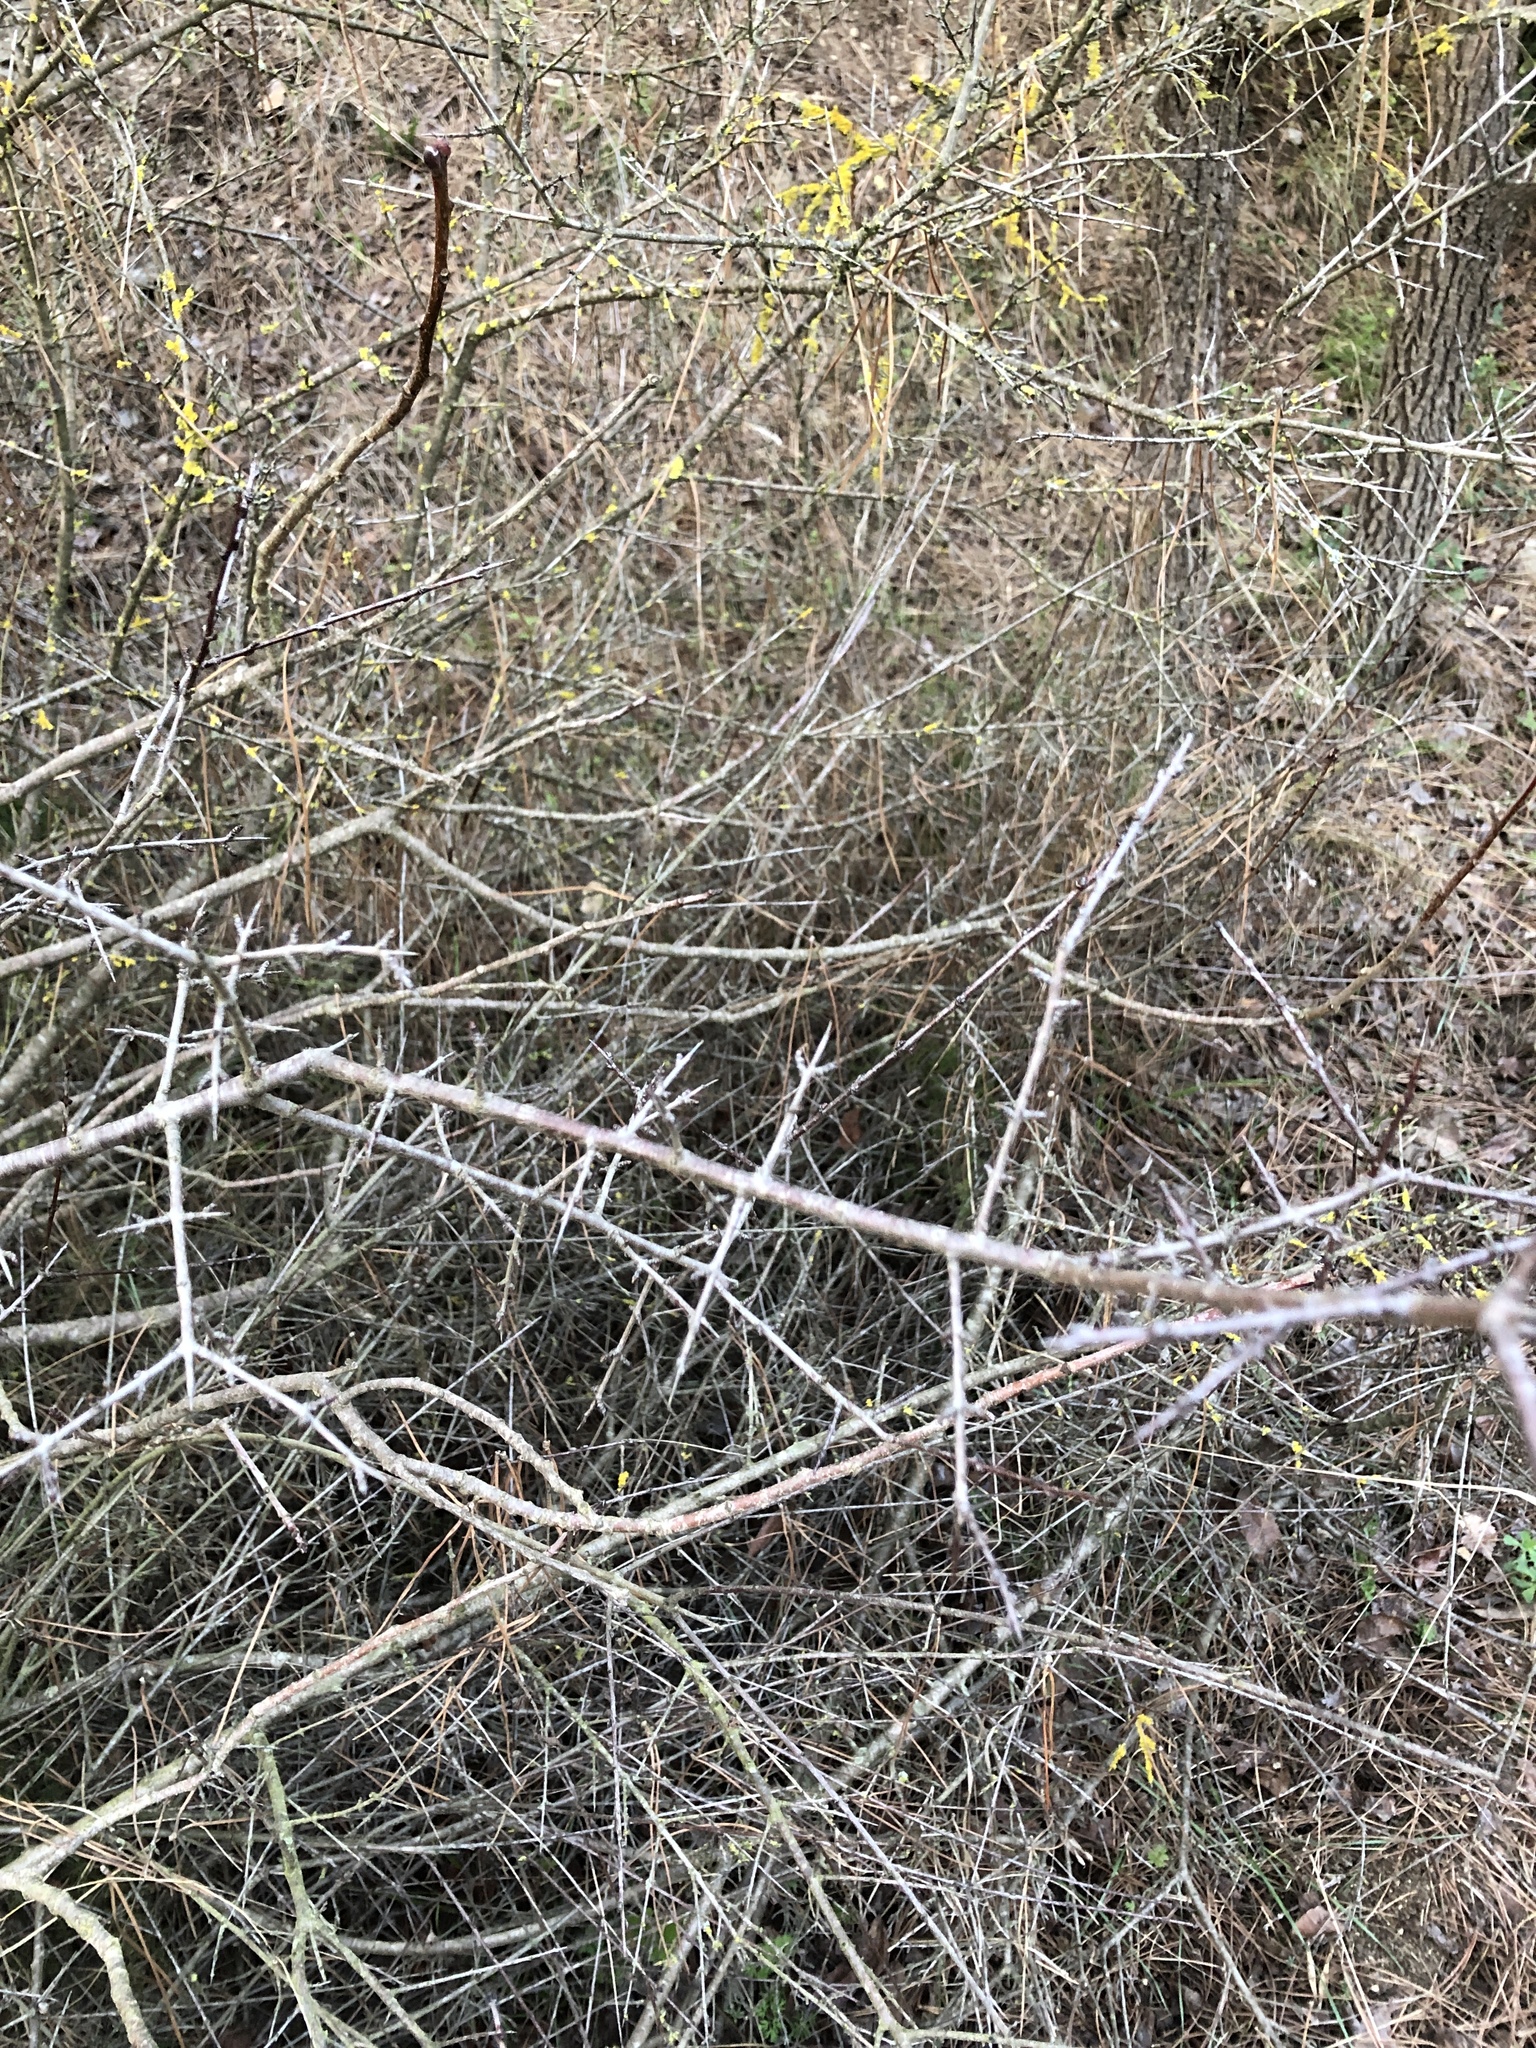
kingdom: Plantae
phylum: Tracheophyta
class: Magnoliopsida
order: Rosales
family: Rhamnaceae
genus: Rhamnus
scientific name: Rhamnus saxatilis
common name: Rock buckthorn
